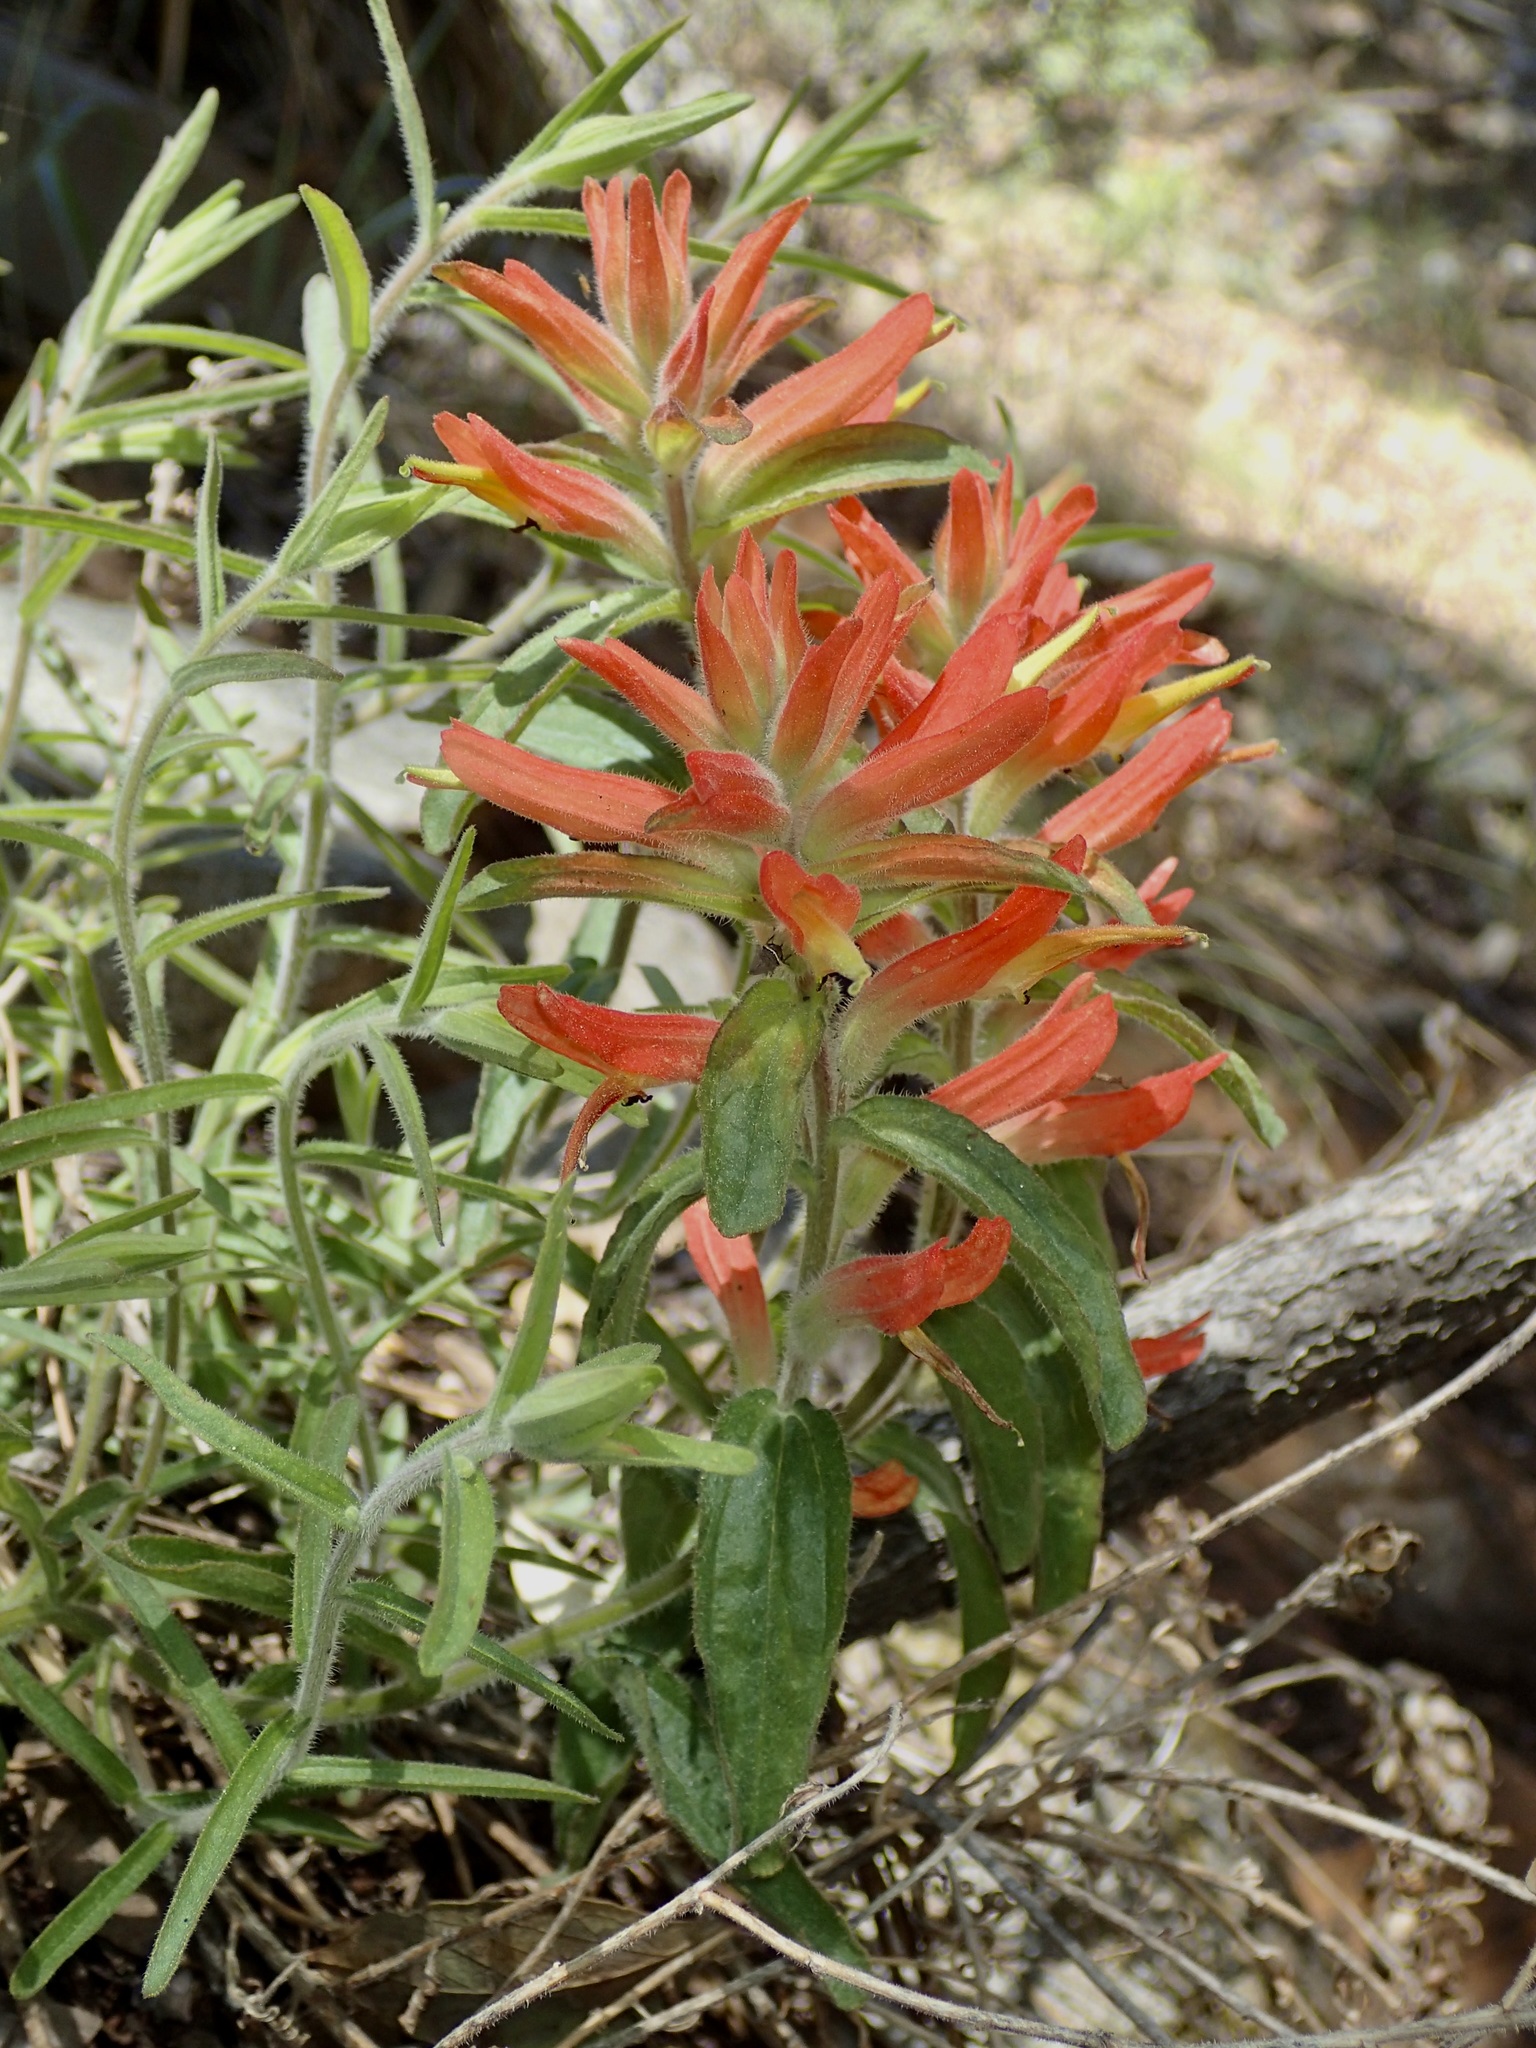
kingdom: Plantae
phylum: Tracheophyta
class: Magnoliopsida
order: Lamiales
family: Orobanchaceae
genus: Castilleja
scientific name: Castilleja tenuiflora
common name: Santa catalina indian paintbrush
